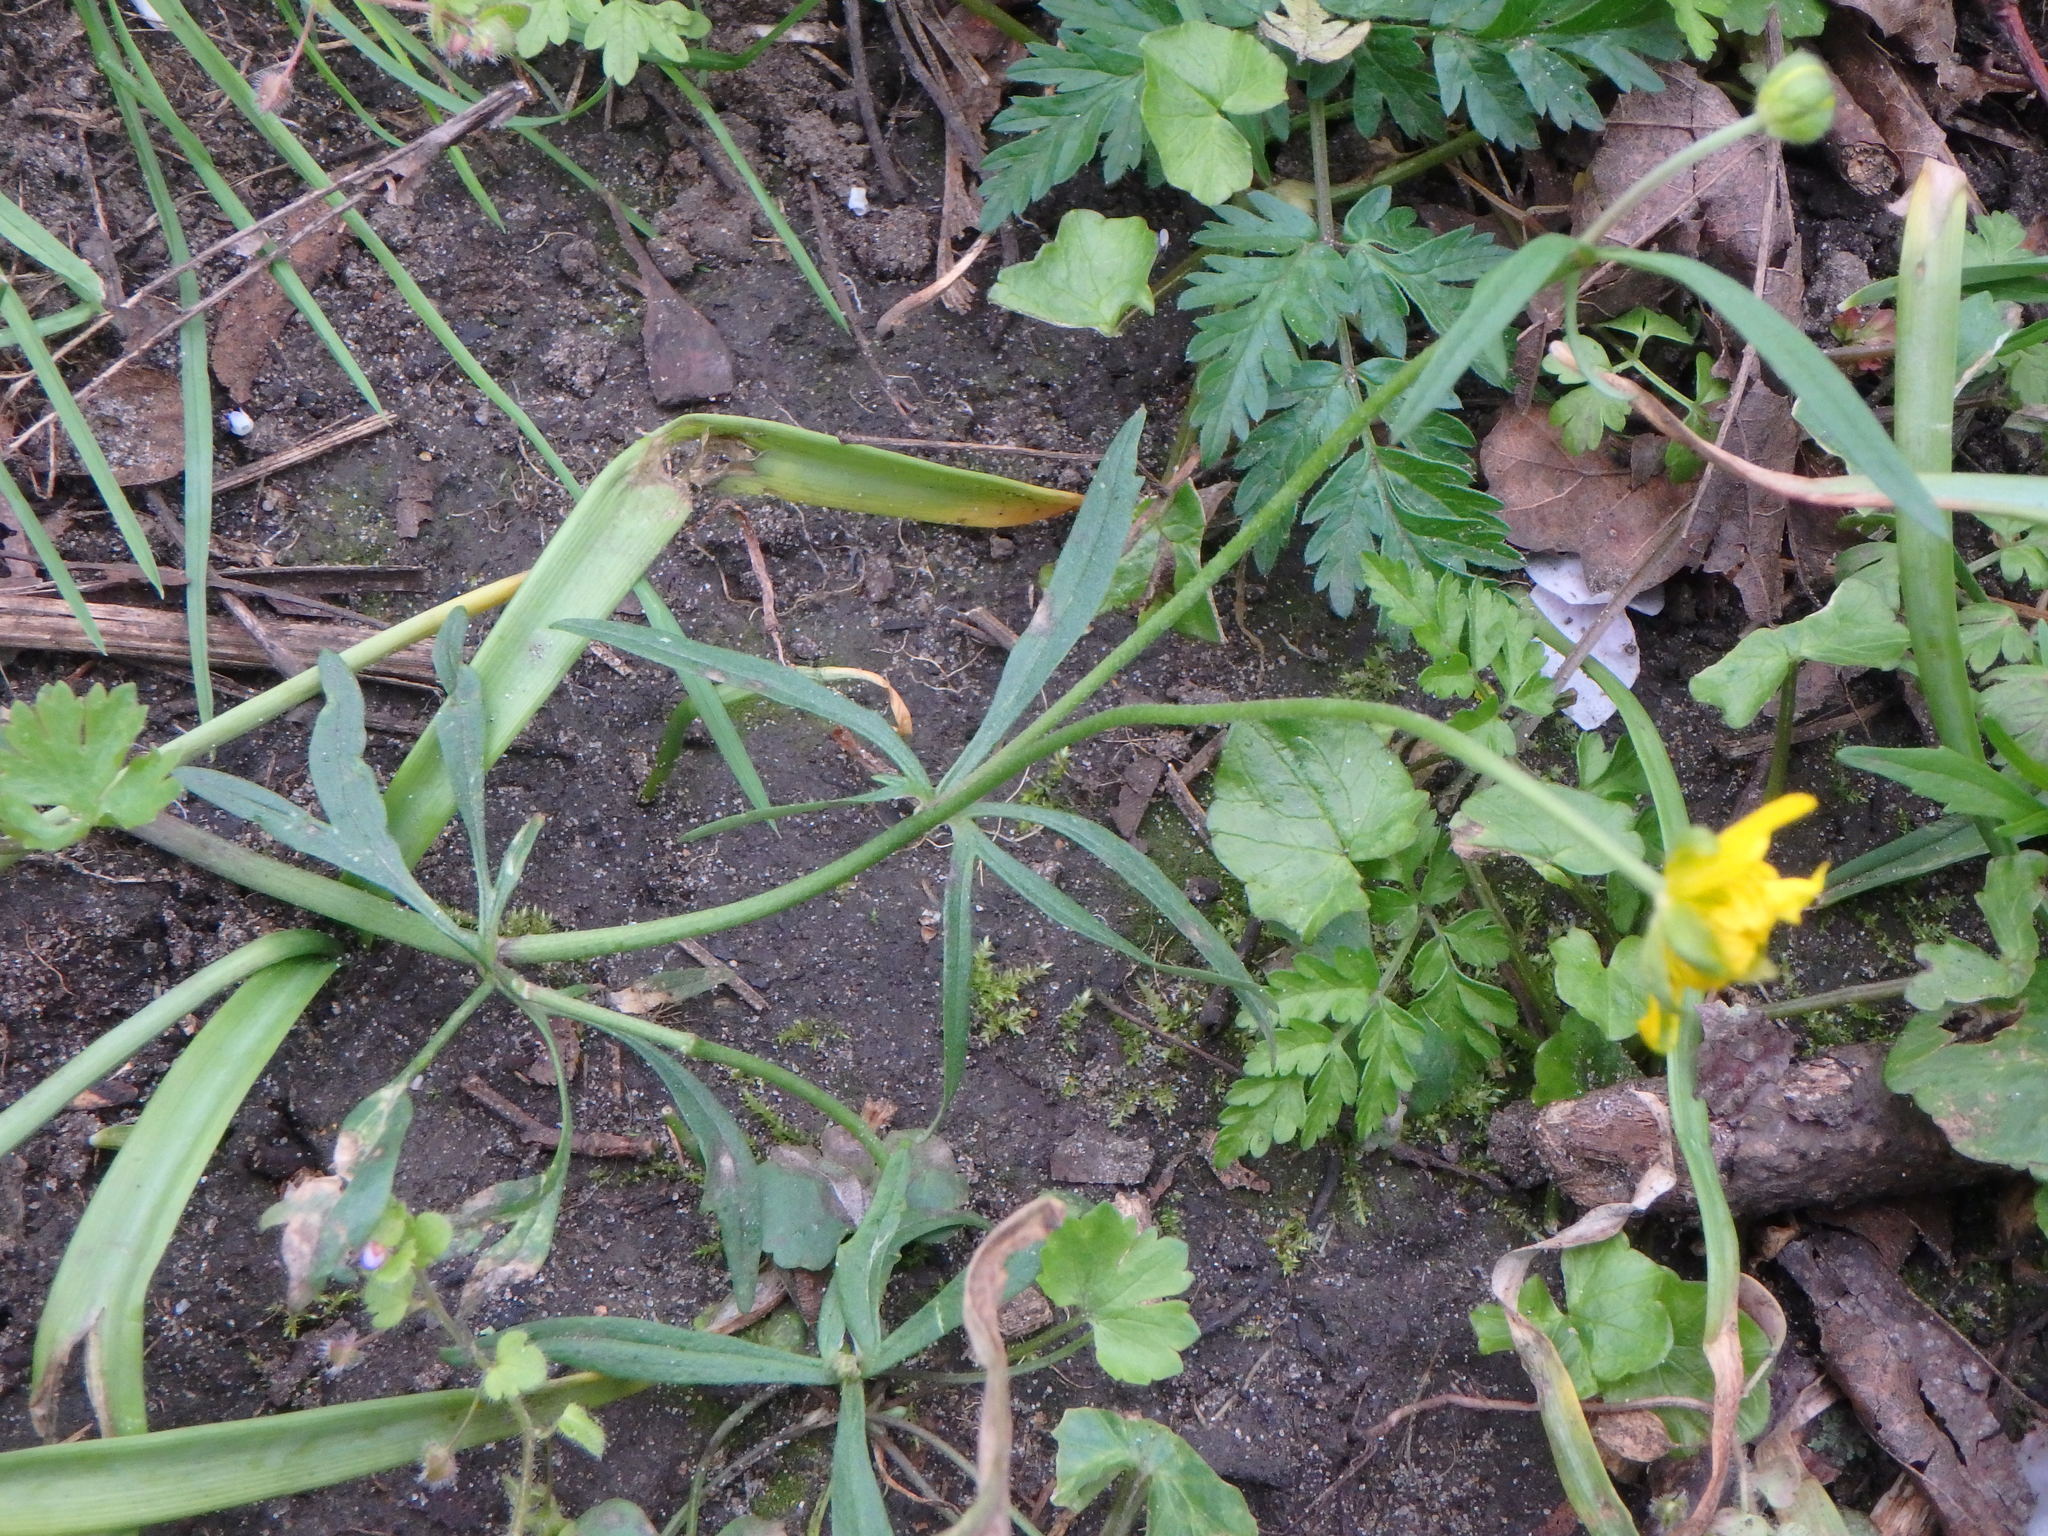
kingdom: Plantae
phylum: Tracheophyta
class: Magnoliopsida
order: Ranunculales
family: Ranunculaceae
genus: Ranunculus
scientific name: Ranunculus auricomus
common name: Goldilocks buttercup
